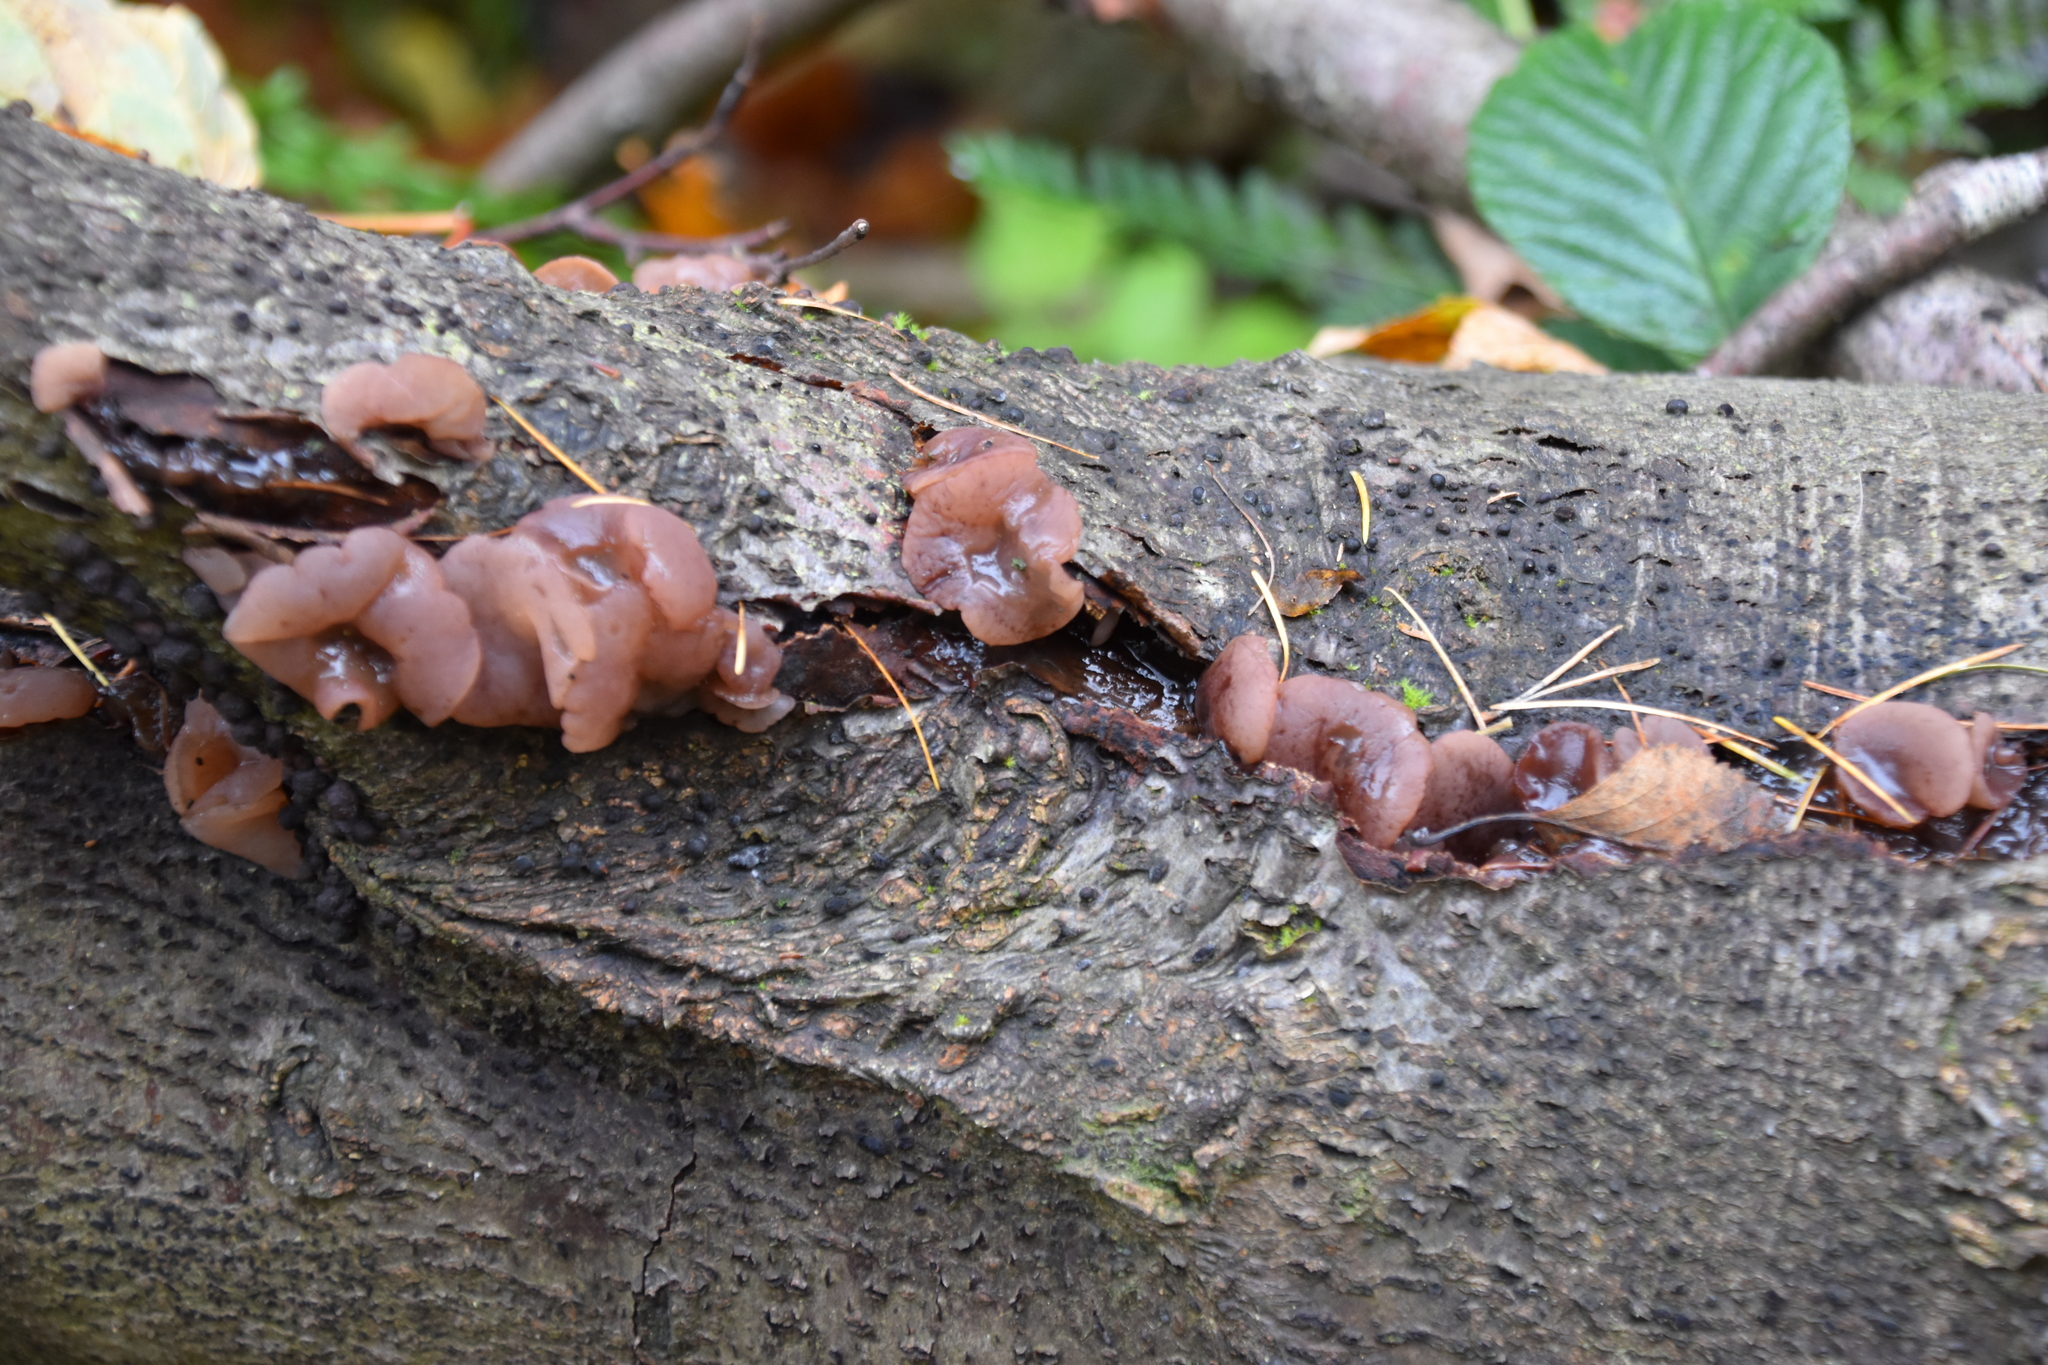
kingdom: Fungi
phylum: Ascomycota
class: Leotiomycetes
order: Helotiales
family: Gelatinodiscaceae
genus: Neobulgaria
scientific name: Neobulgaria pura
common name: Beech jelly-disc
